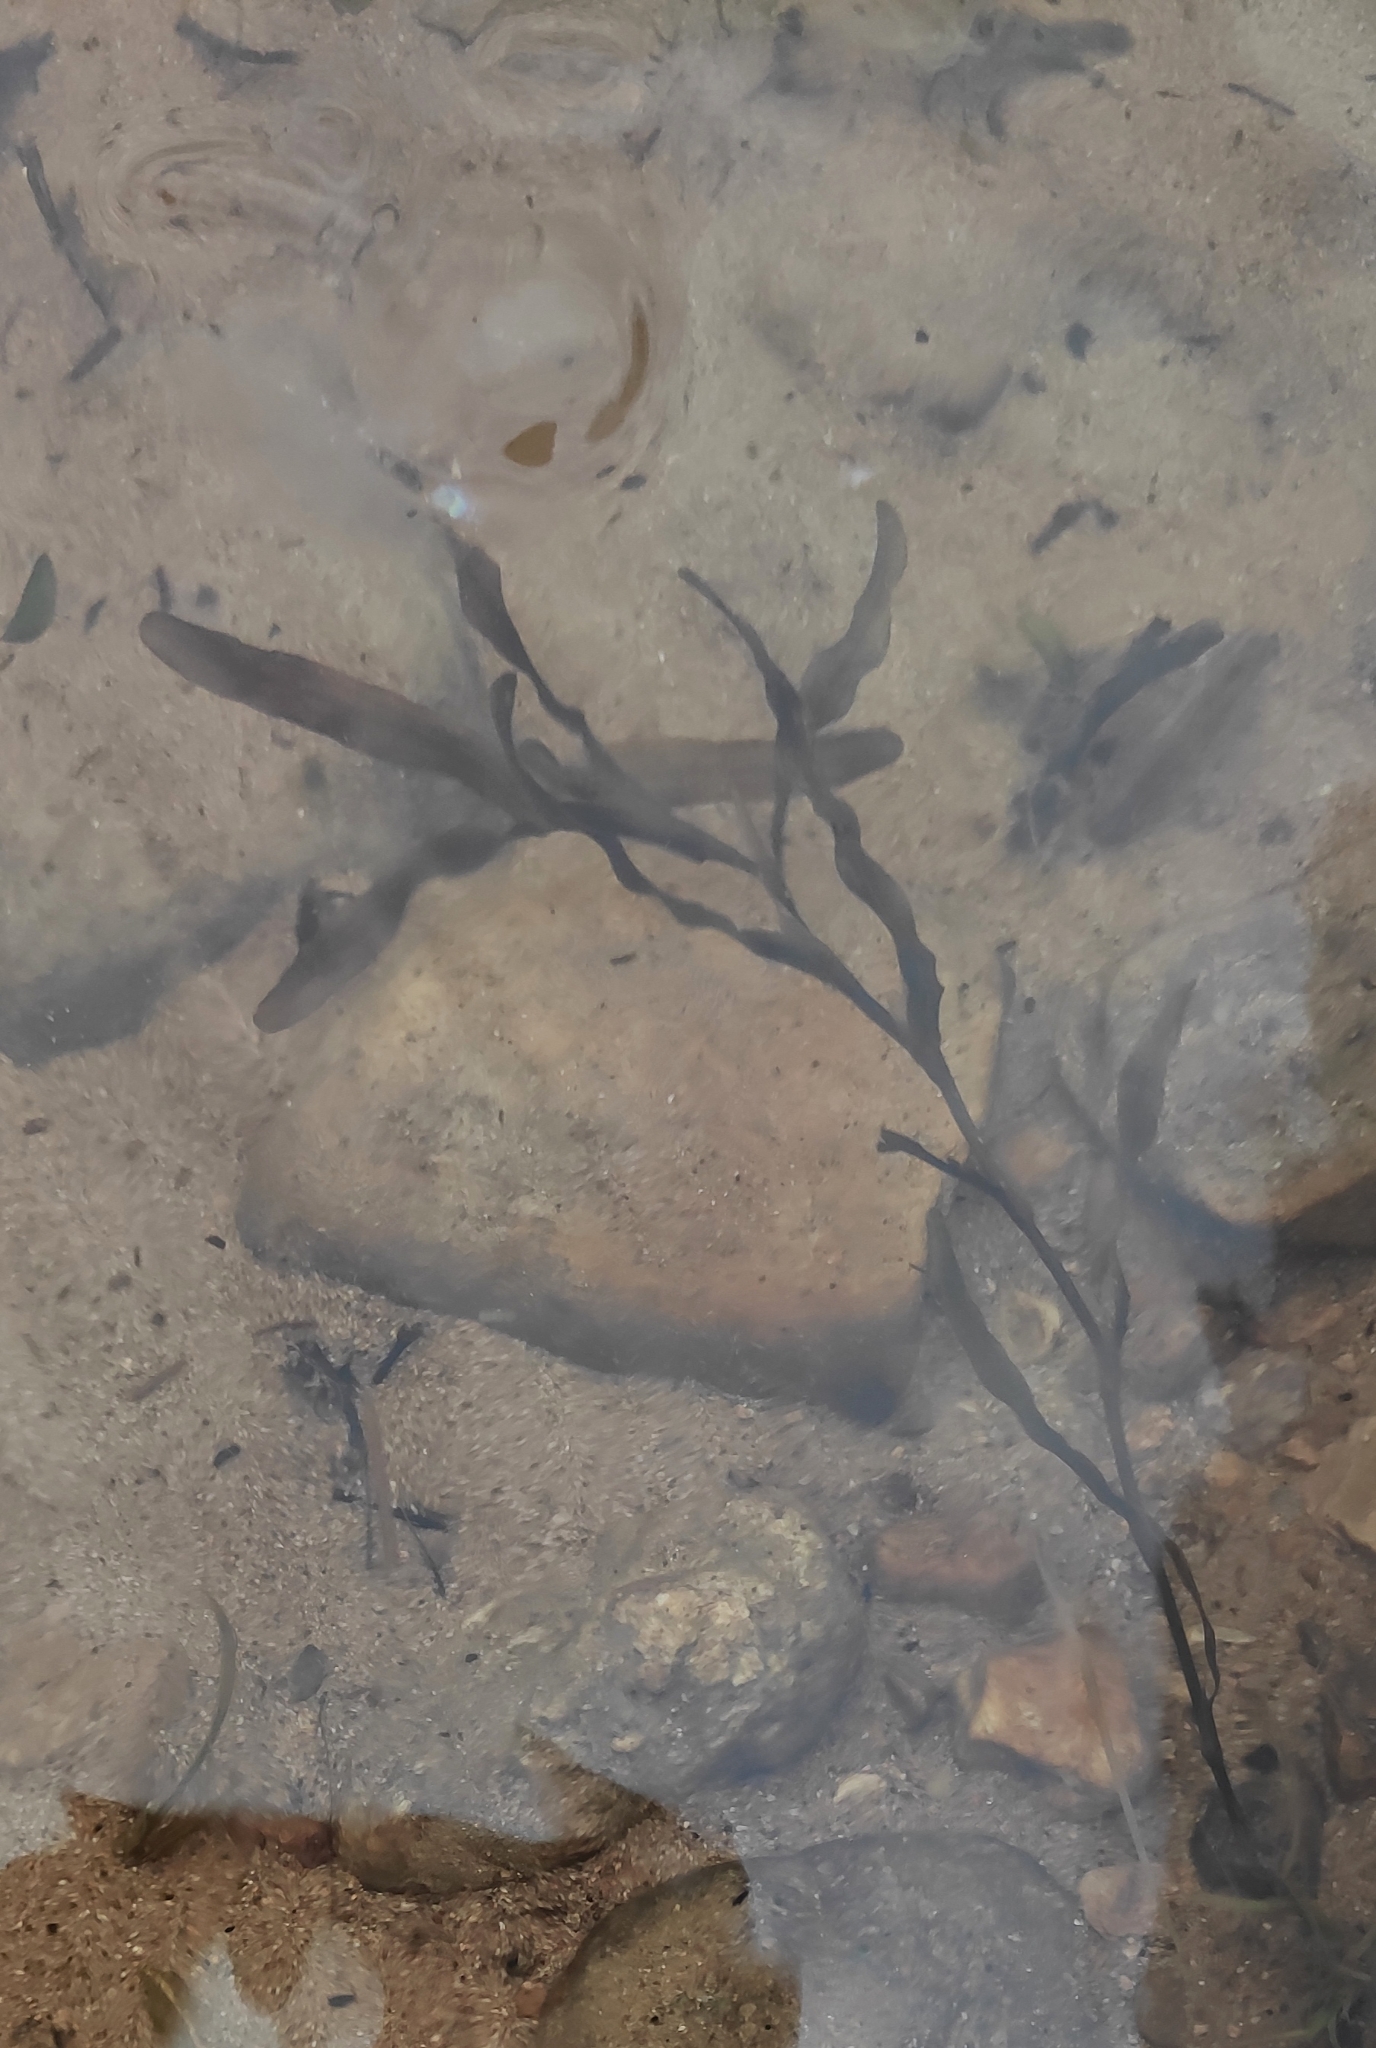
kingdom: Plantae
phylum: Tracheophyta
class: Liliopsida
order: Alismatales
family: Potamogetonaceae
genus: Potamogeton
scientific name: Potamogeton crispus
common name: Curled pondweed
